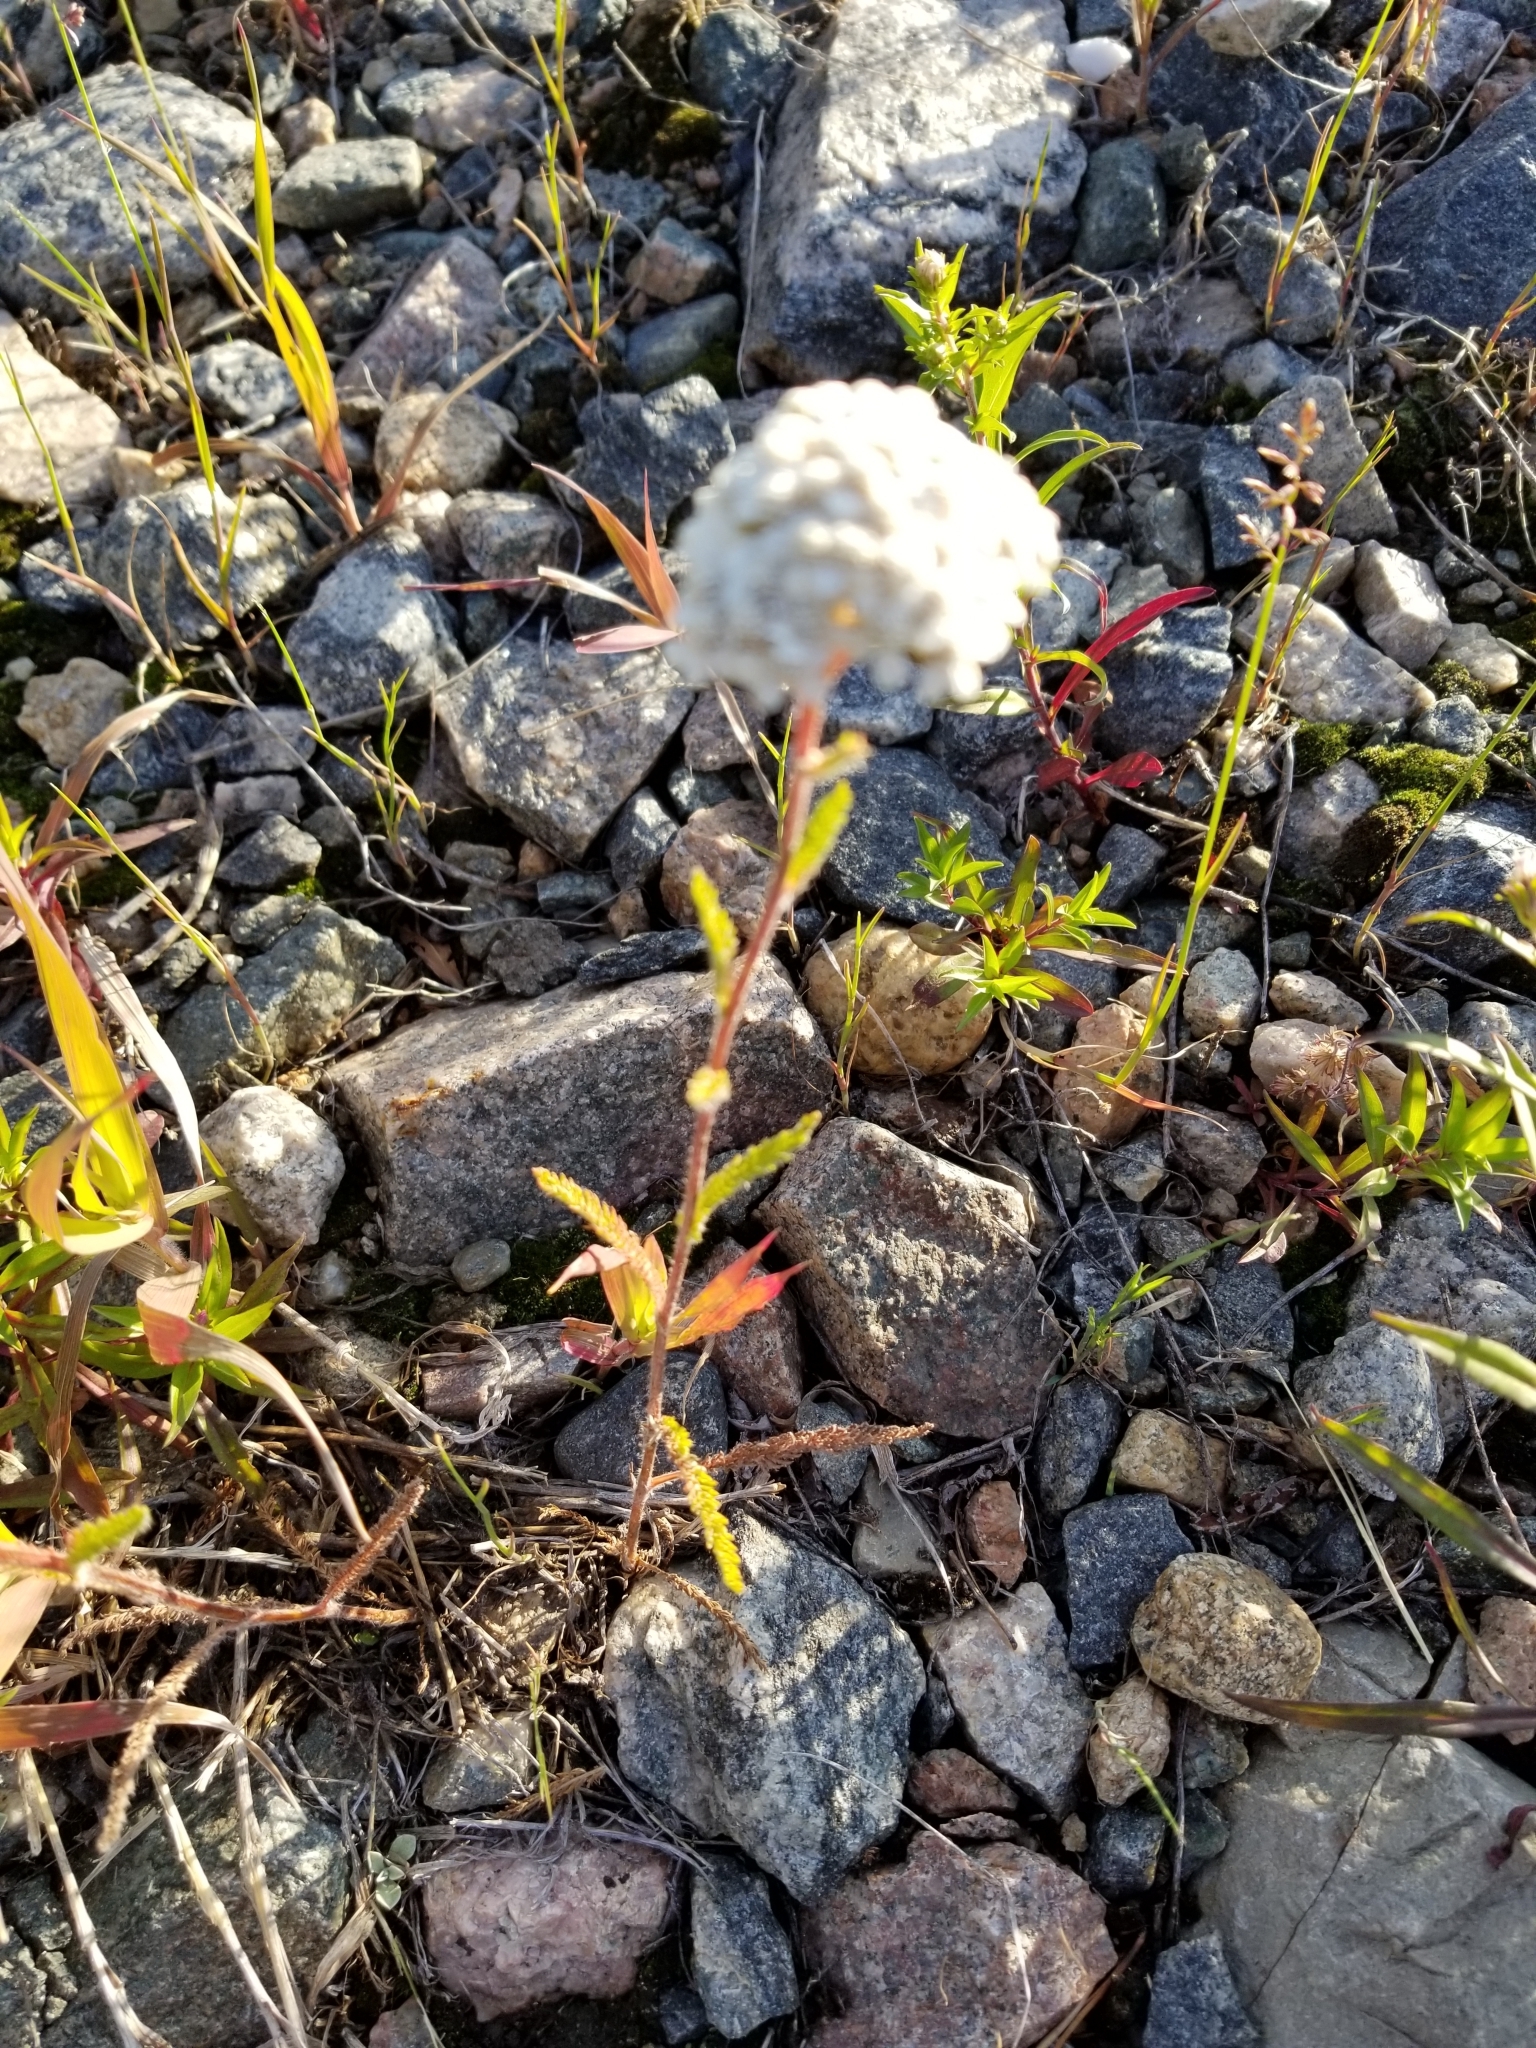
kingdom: Plantae
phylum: Tracheophyta
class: Magnoliopsida
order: Asterales
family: Asteraceae
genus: Achillea
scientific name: Achillea millefolium
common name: Yarrow
